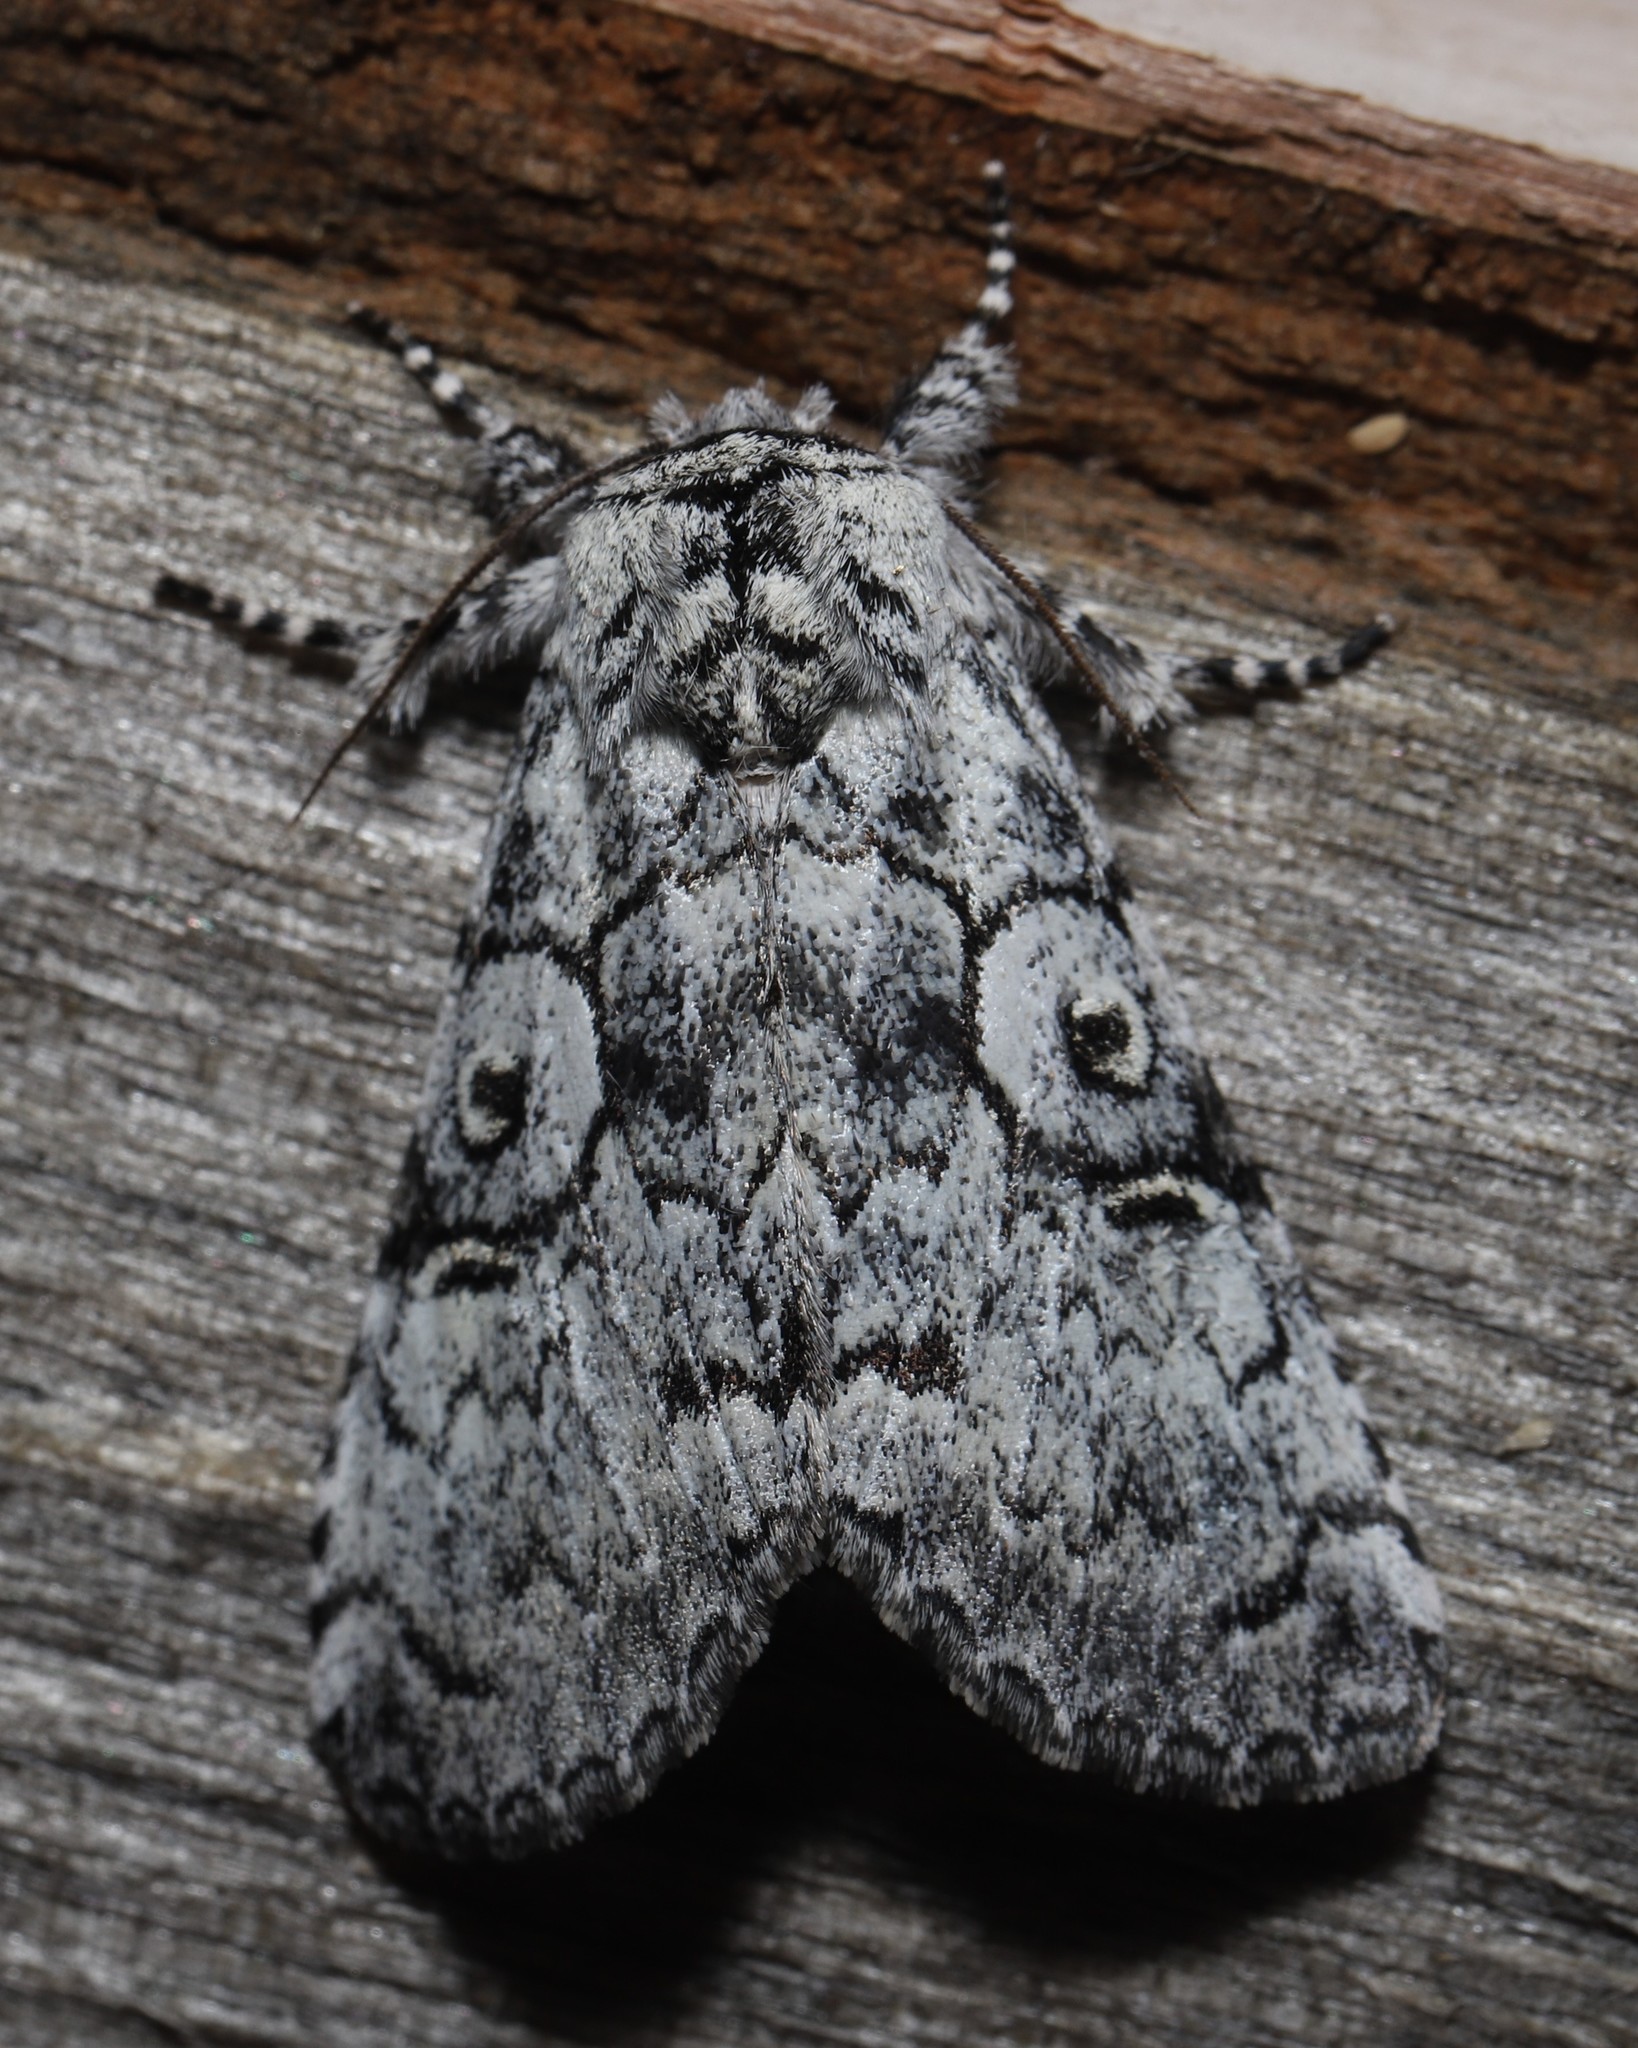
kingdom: Animalia
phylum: Arthropoda
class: Insecta
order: Lepidoptera
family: Noctuidae
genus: Charadra
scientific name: Charadra deridens
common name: Marbled tuffet
